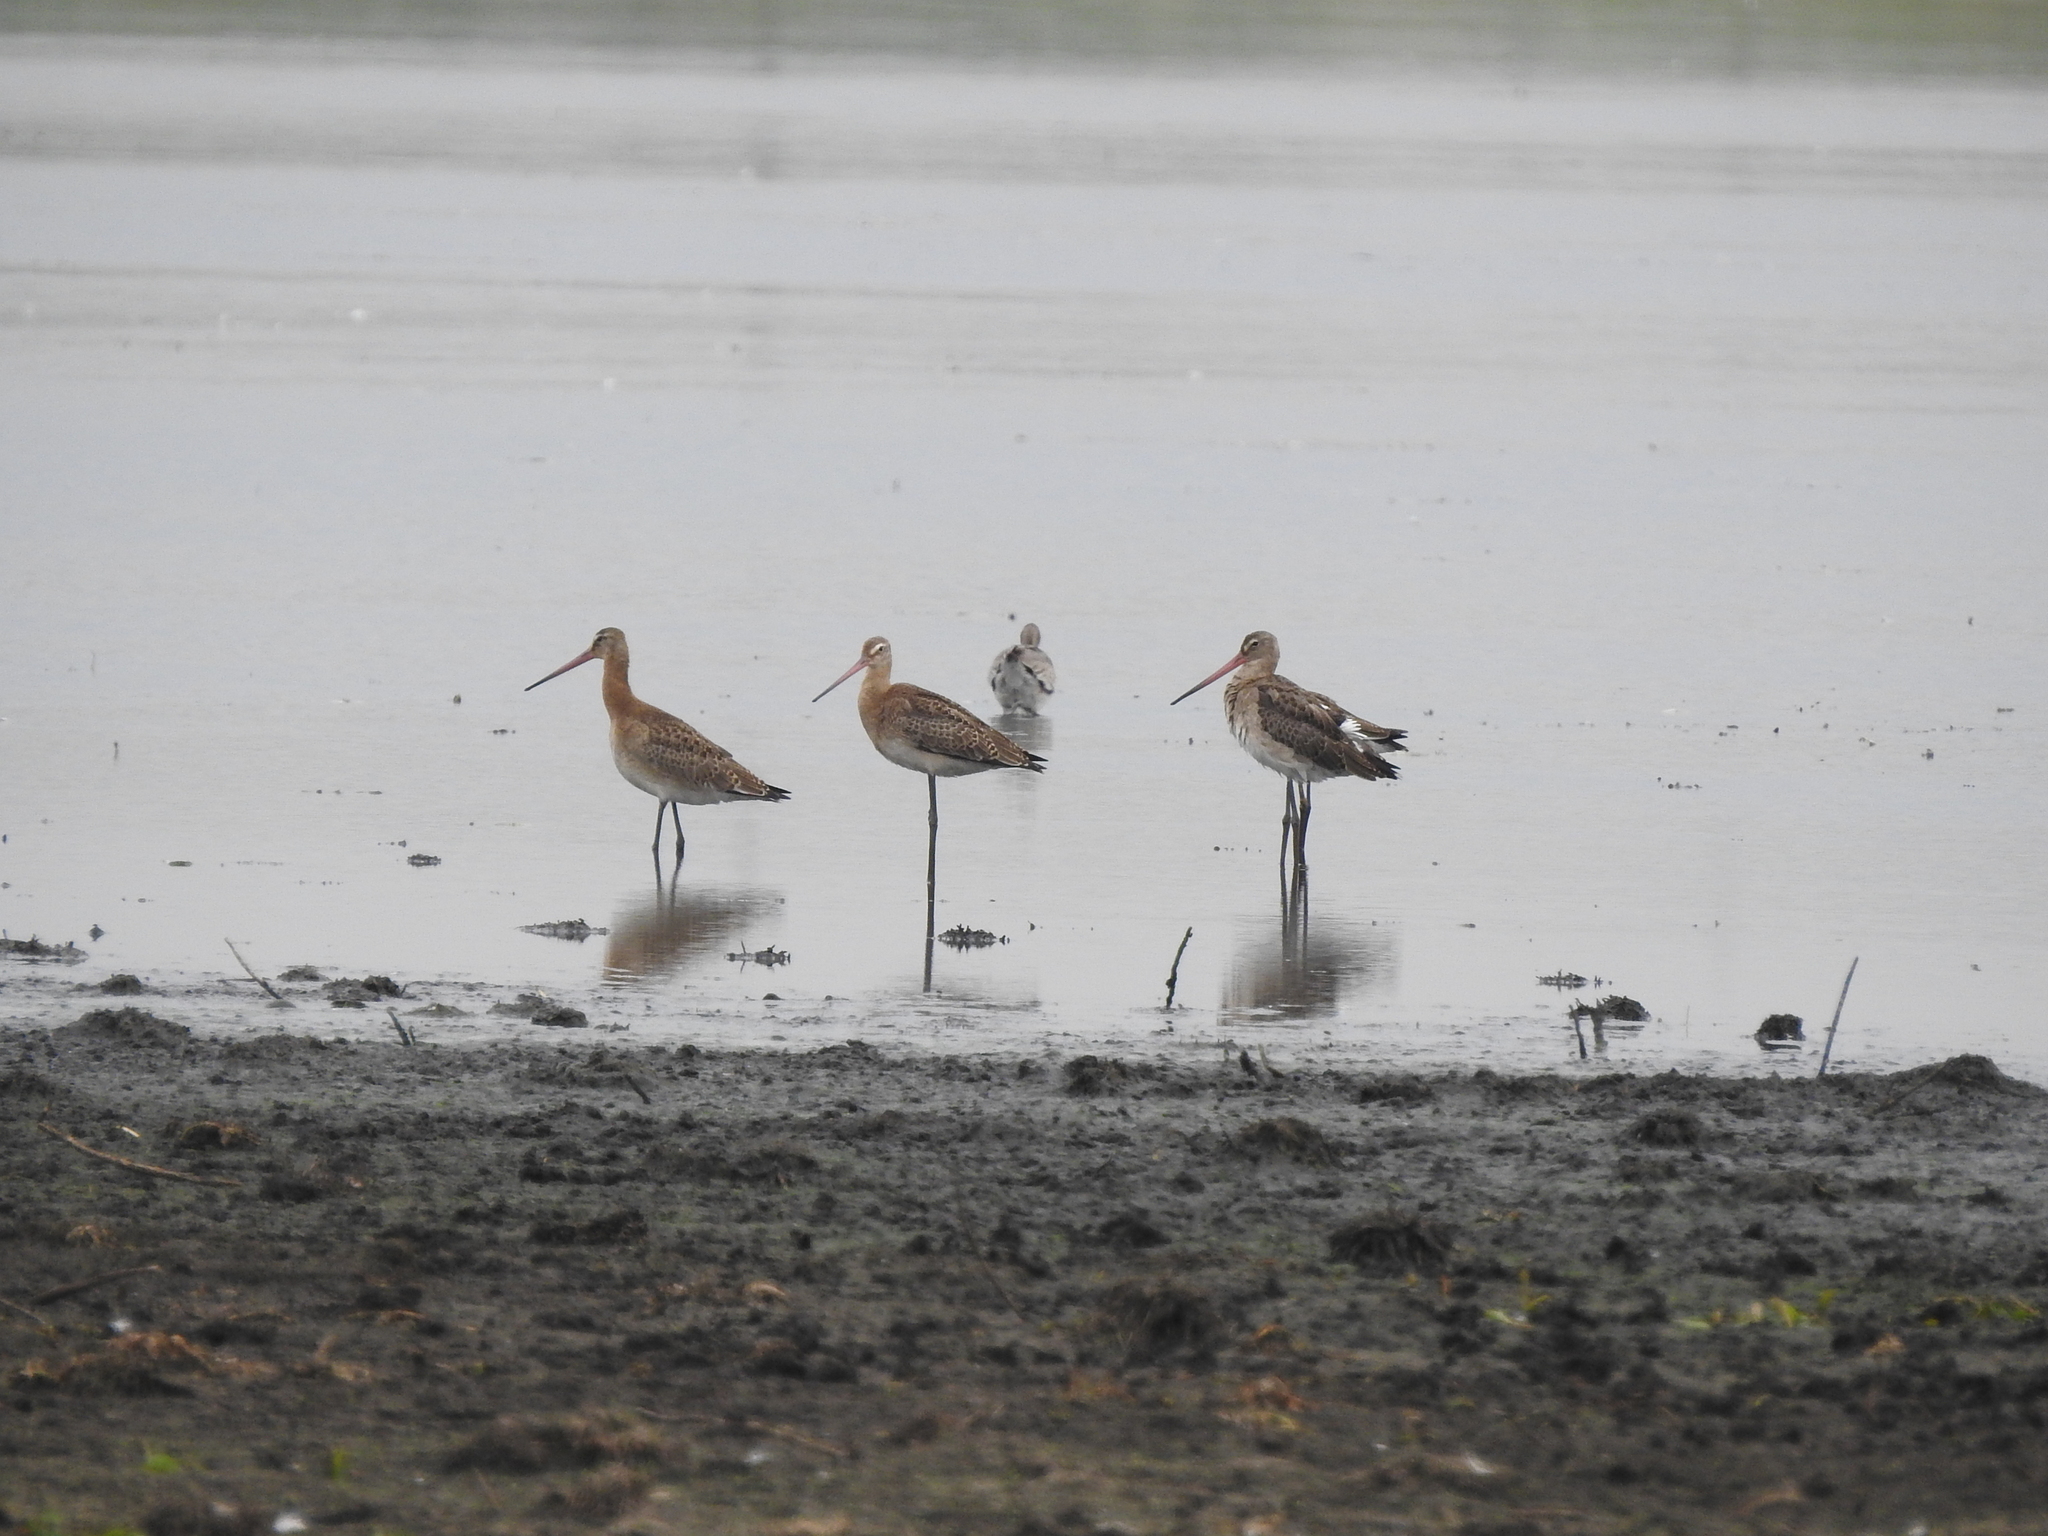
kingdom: Animalia
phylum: Chordata
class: Aves
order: Charadriiformes
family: Scolopacidae
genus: Limosa
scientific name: Limosa limosa
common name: Black-tailed godwit
